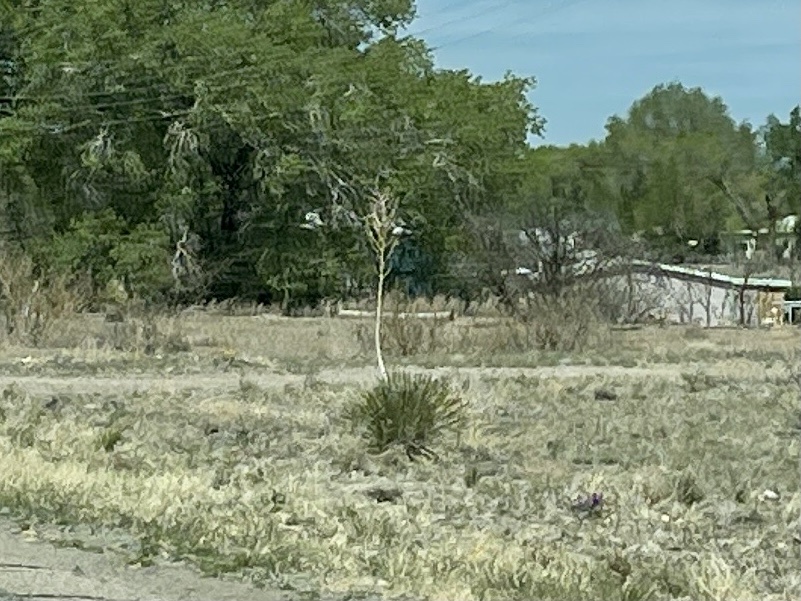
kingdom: Plantae
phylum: Tracheophyta
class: Liliopsida
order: Asparagales
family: Asparagaceae
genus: Yucca
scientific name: Yucca elata
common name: Palmella
